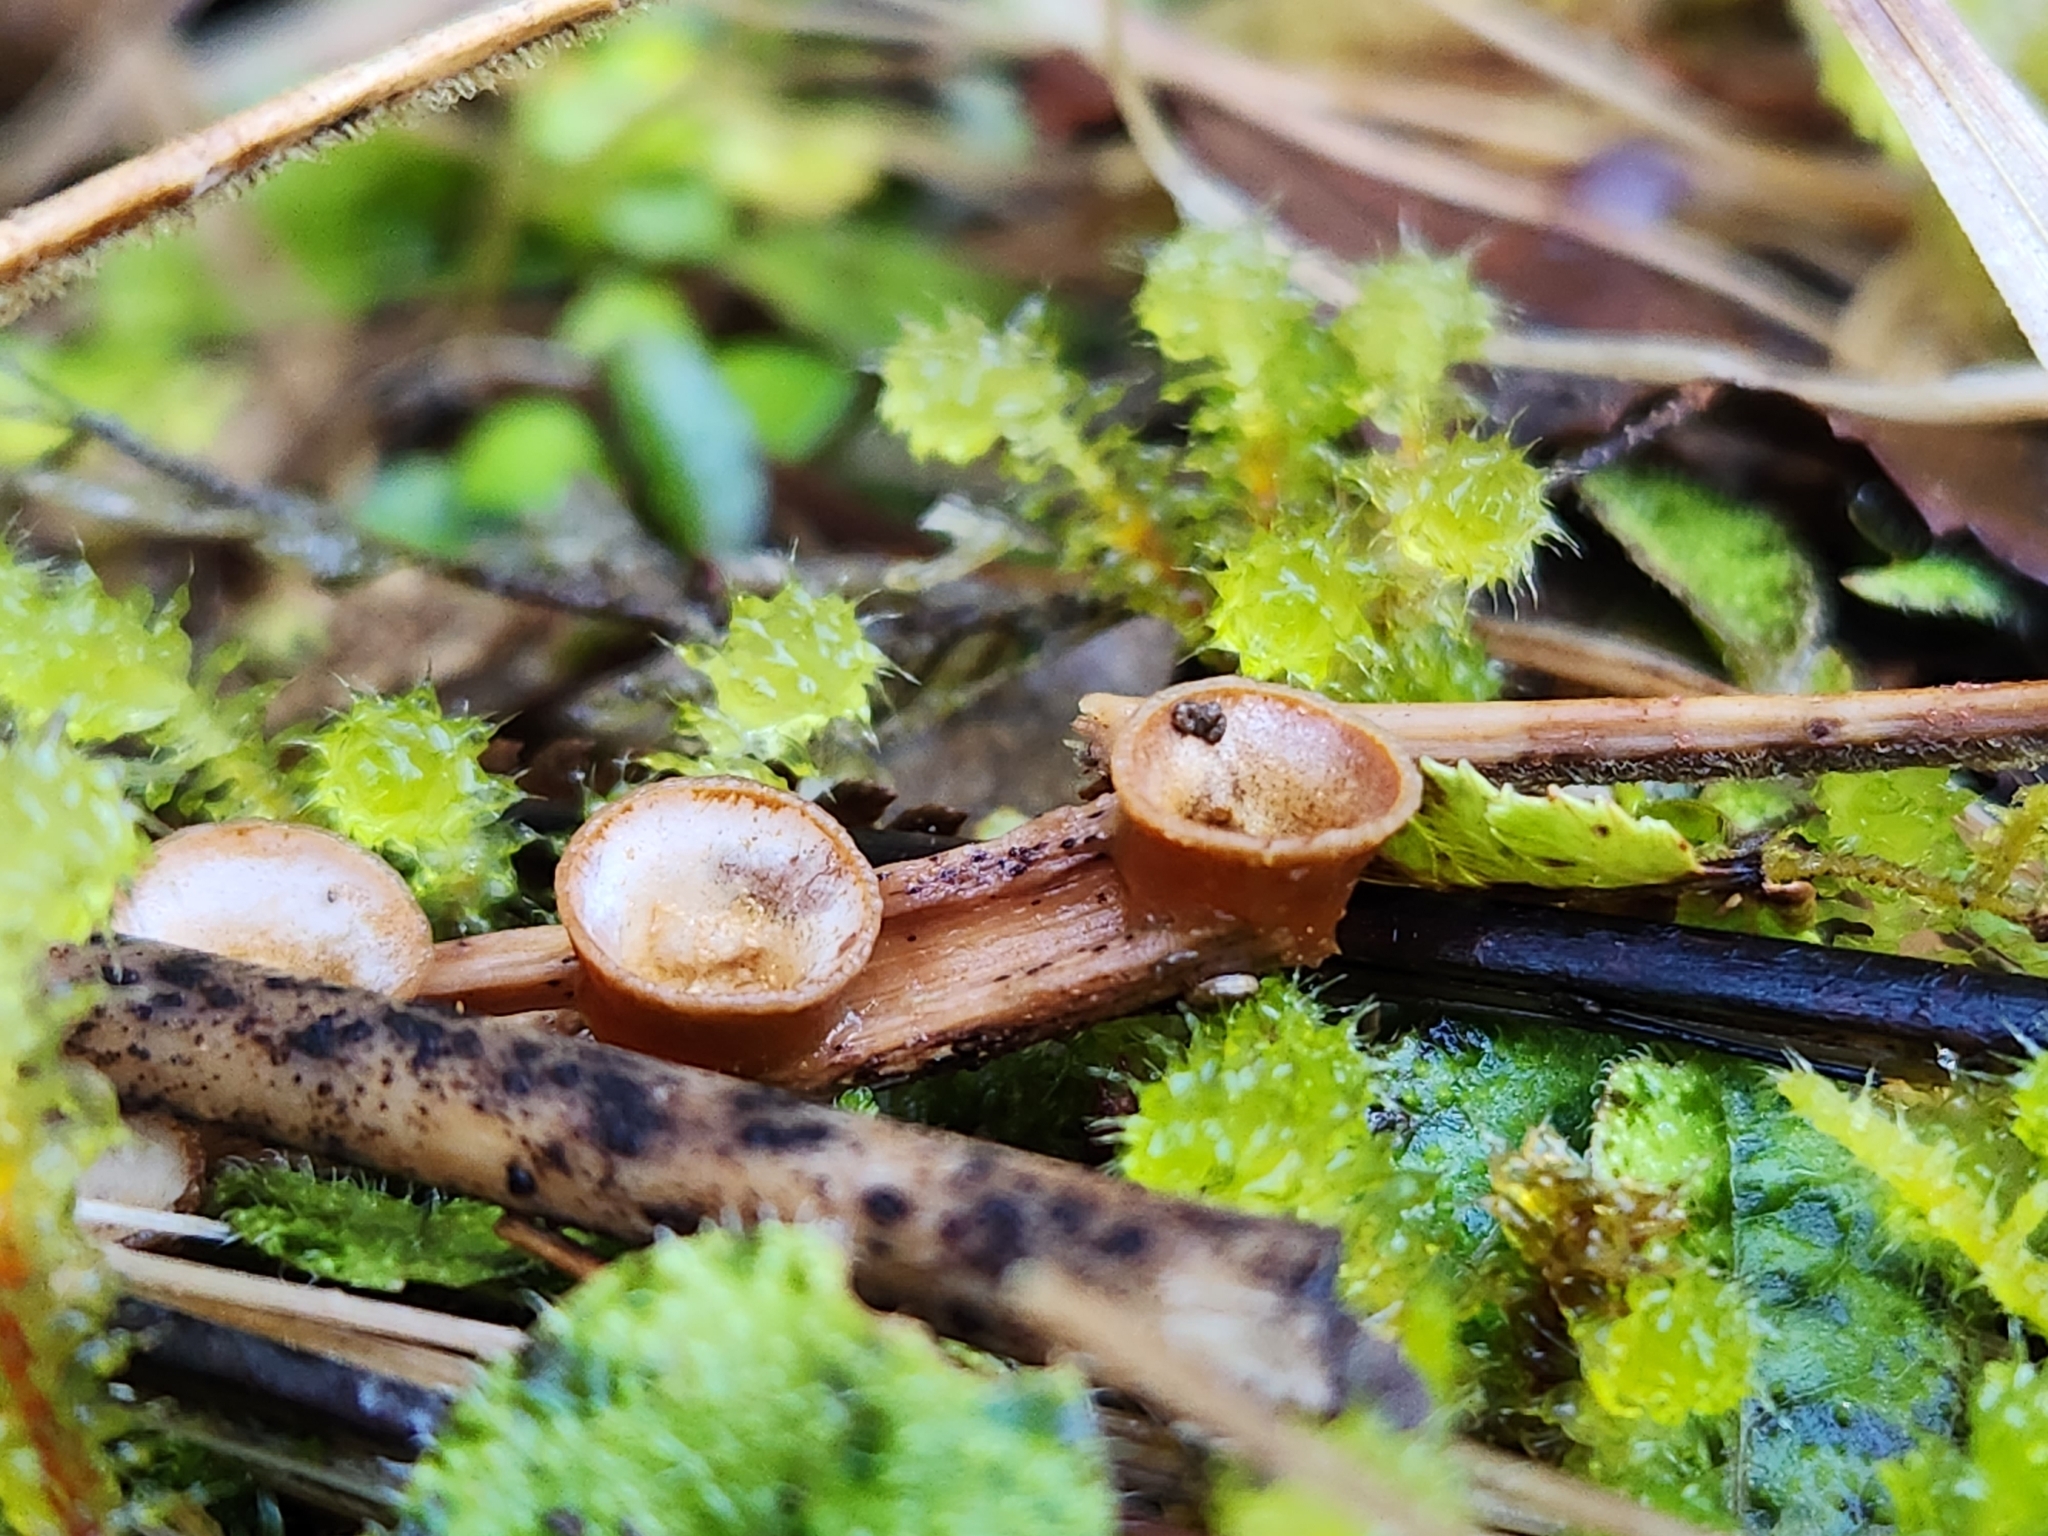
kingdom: Fungi
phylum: Basidiomycota
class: Agaricomycetes
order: Agaricales
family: Nidulariaceae
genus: Crucibulum
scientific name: Crucibulum simile
